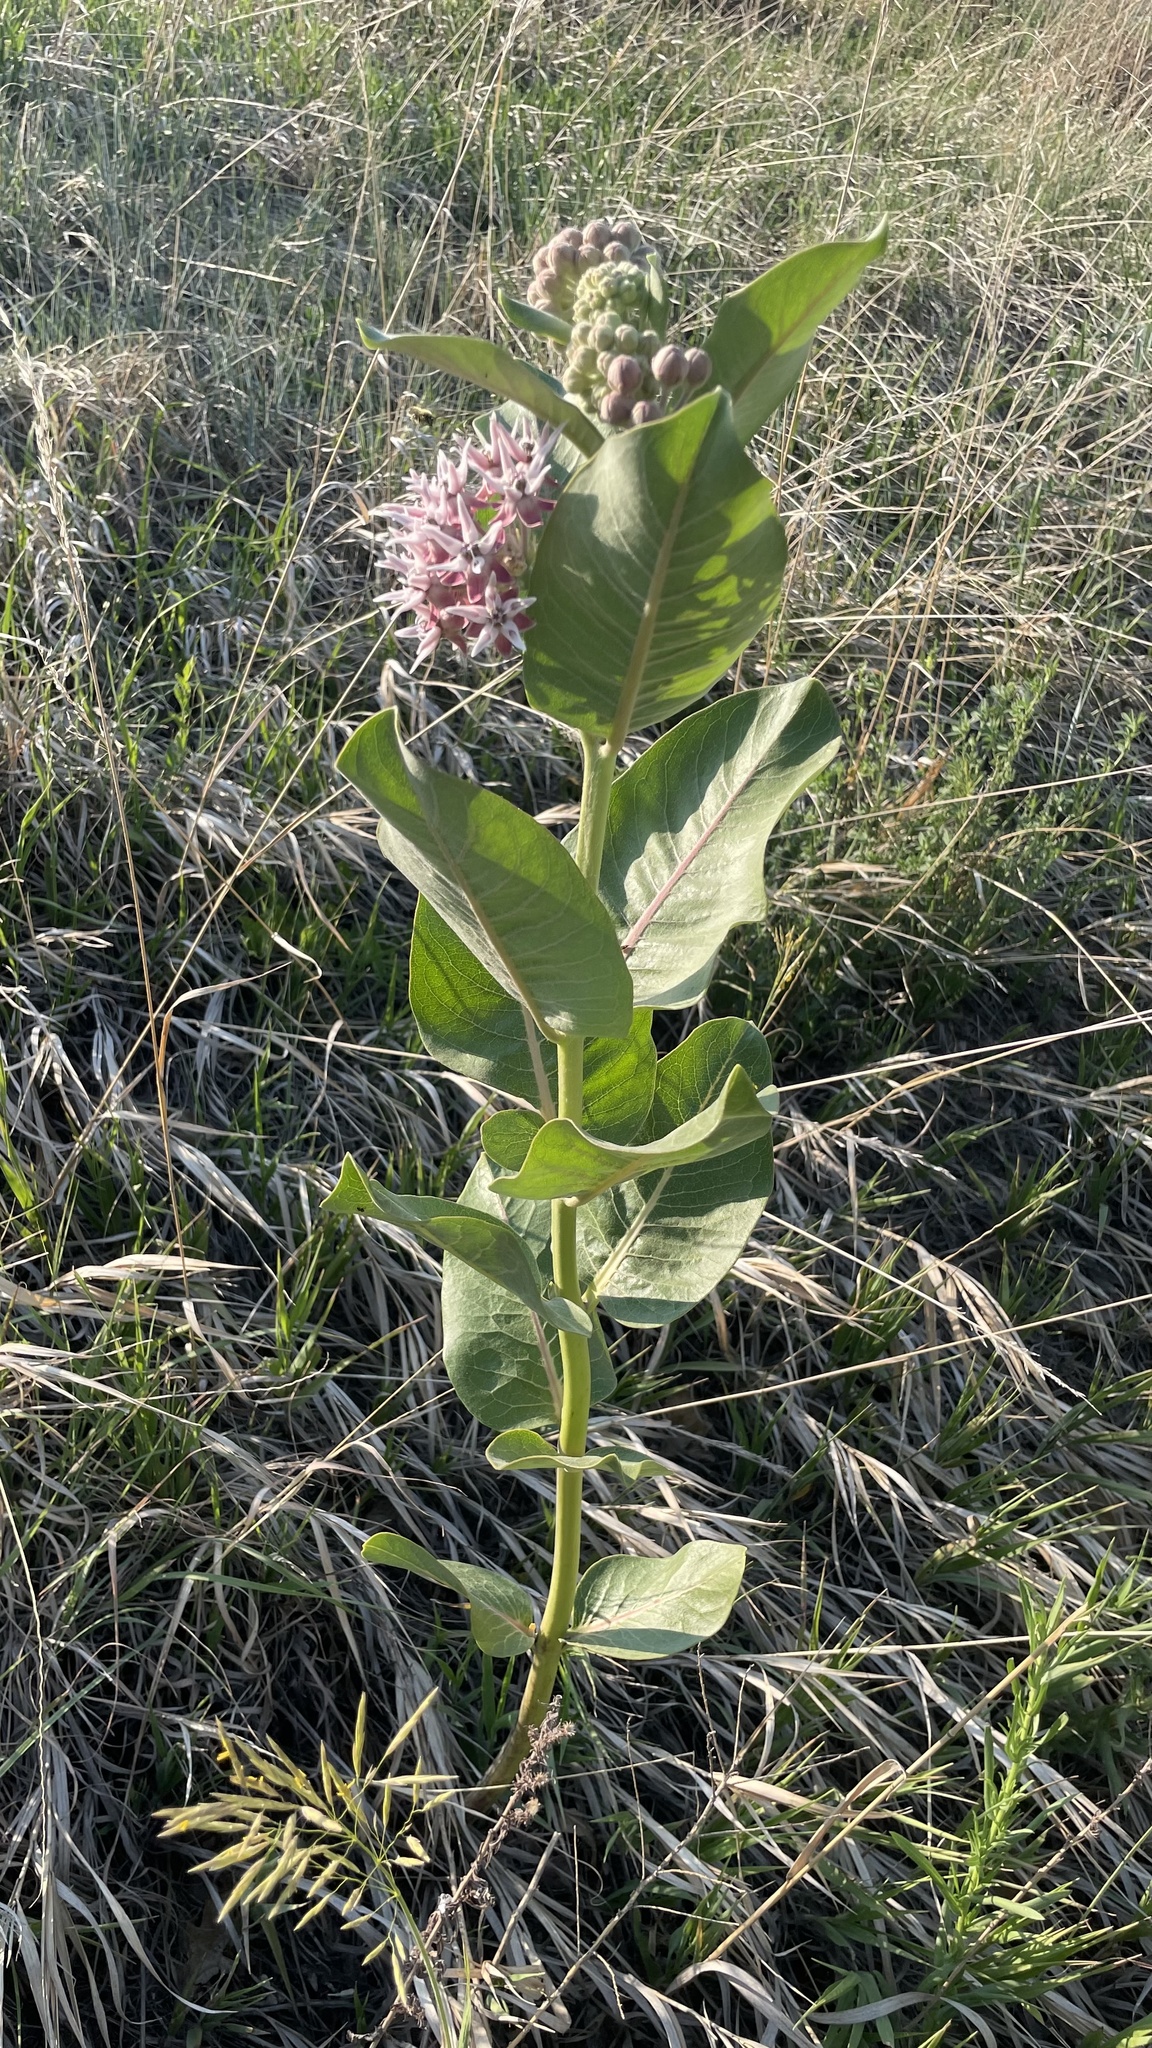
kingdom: Plantae
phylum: Tracheophyta
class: Magnoliopsida
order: Gentianales
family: Apocynaceae
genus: Asclepias
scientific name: Asclepias speciosa
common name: Showy milkweed
